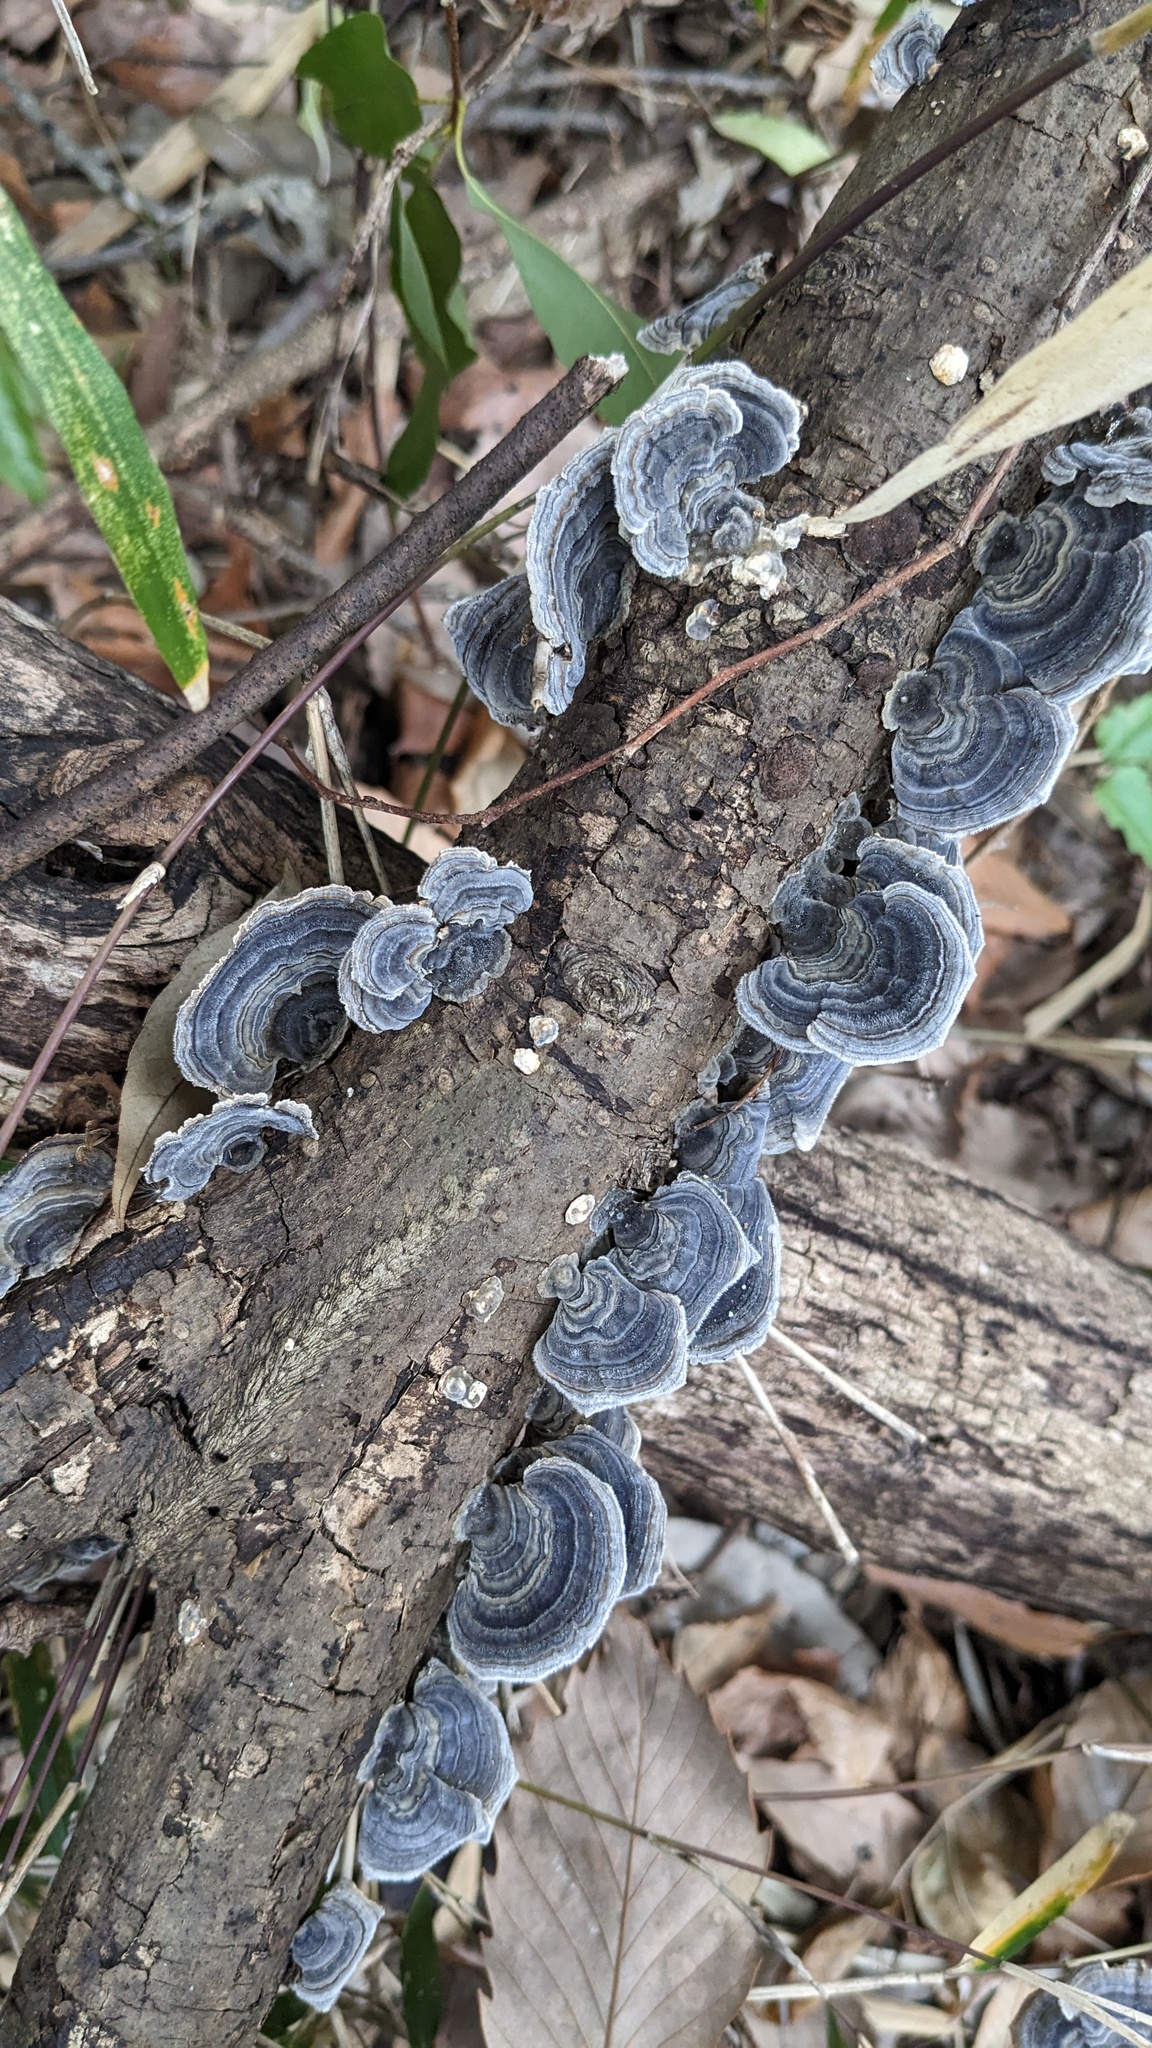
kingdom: Fungi
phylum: Basidiomycota
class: Agaricomycetes
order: Polyporales
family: Polyporaceae
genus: Trametes
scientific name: Trametes versicolor
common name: Turkeytail
